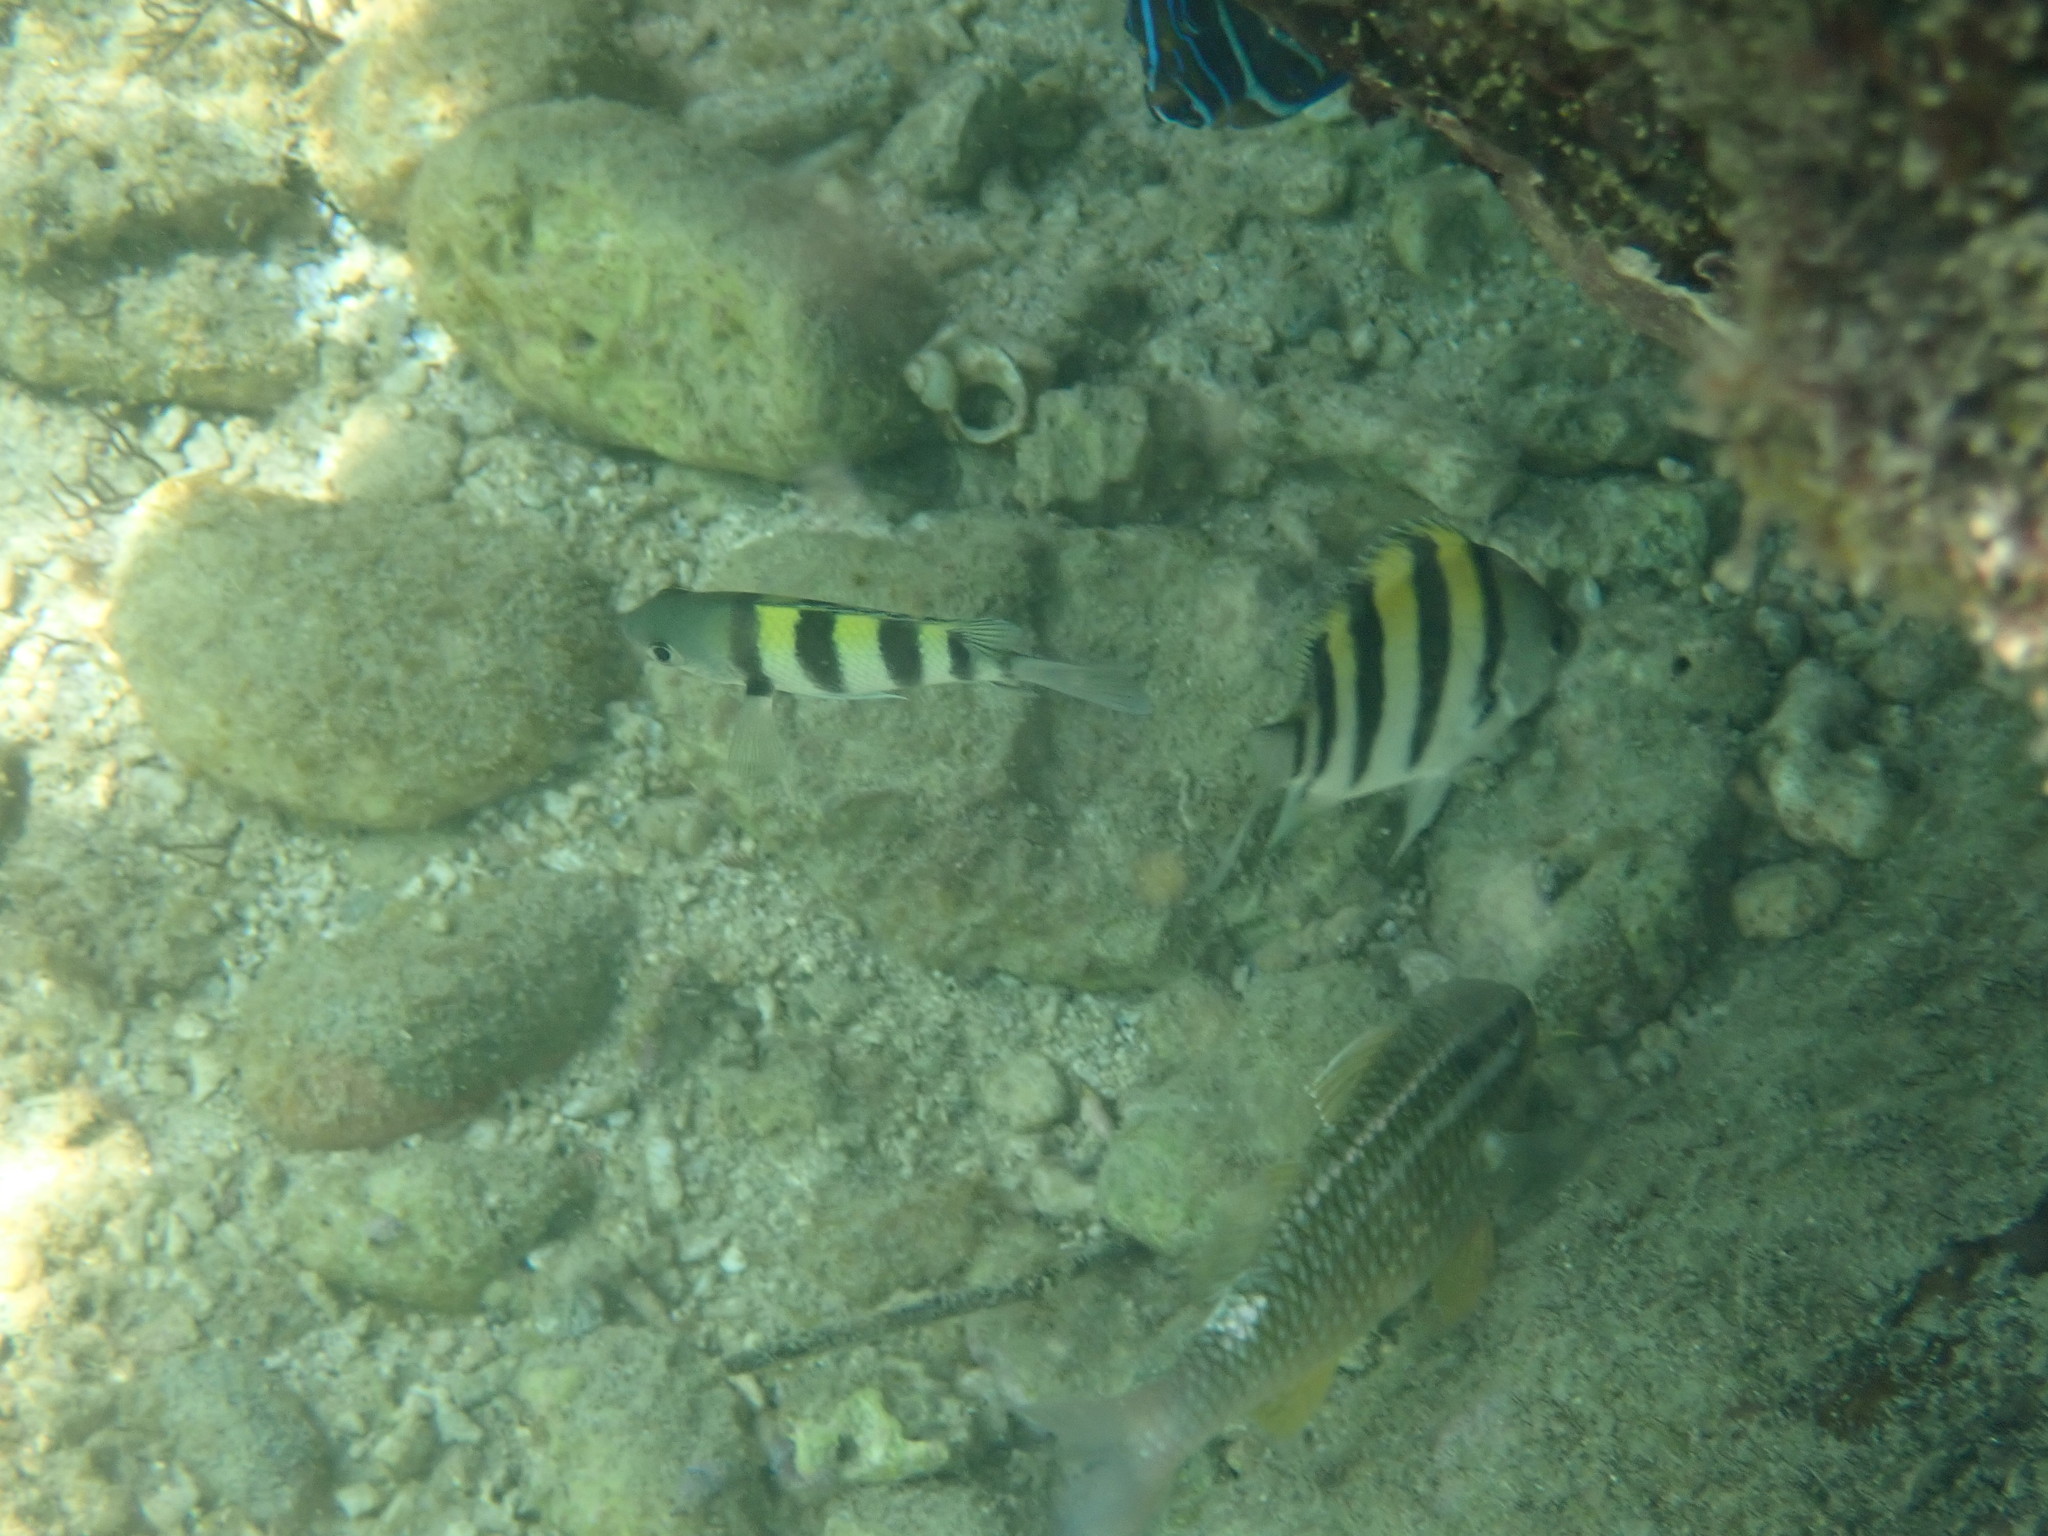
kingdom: Animalia
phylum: Chordata
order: Perciformes
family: Pomacentridae
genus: Abudefduf
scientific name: Abudefduf vaigiensis
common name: Indo-pacific sergeant
